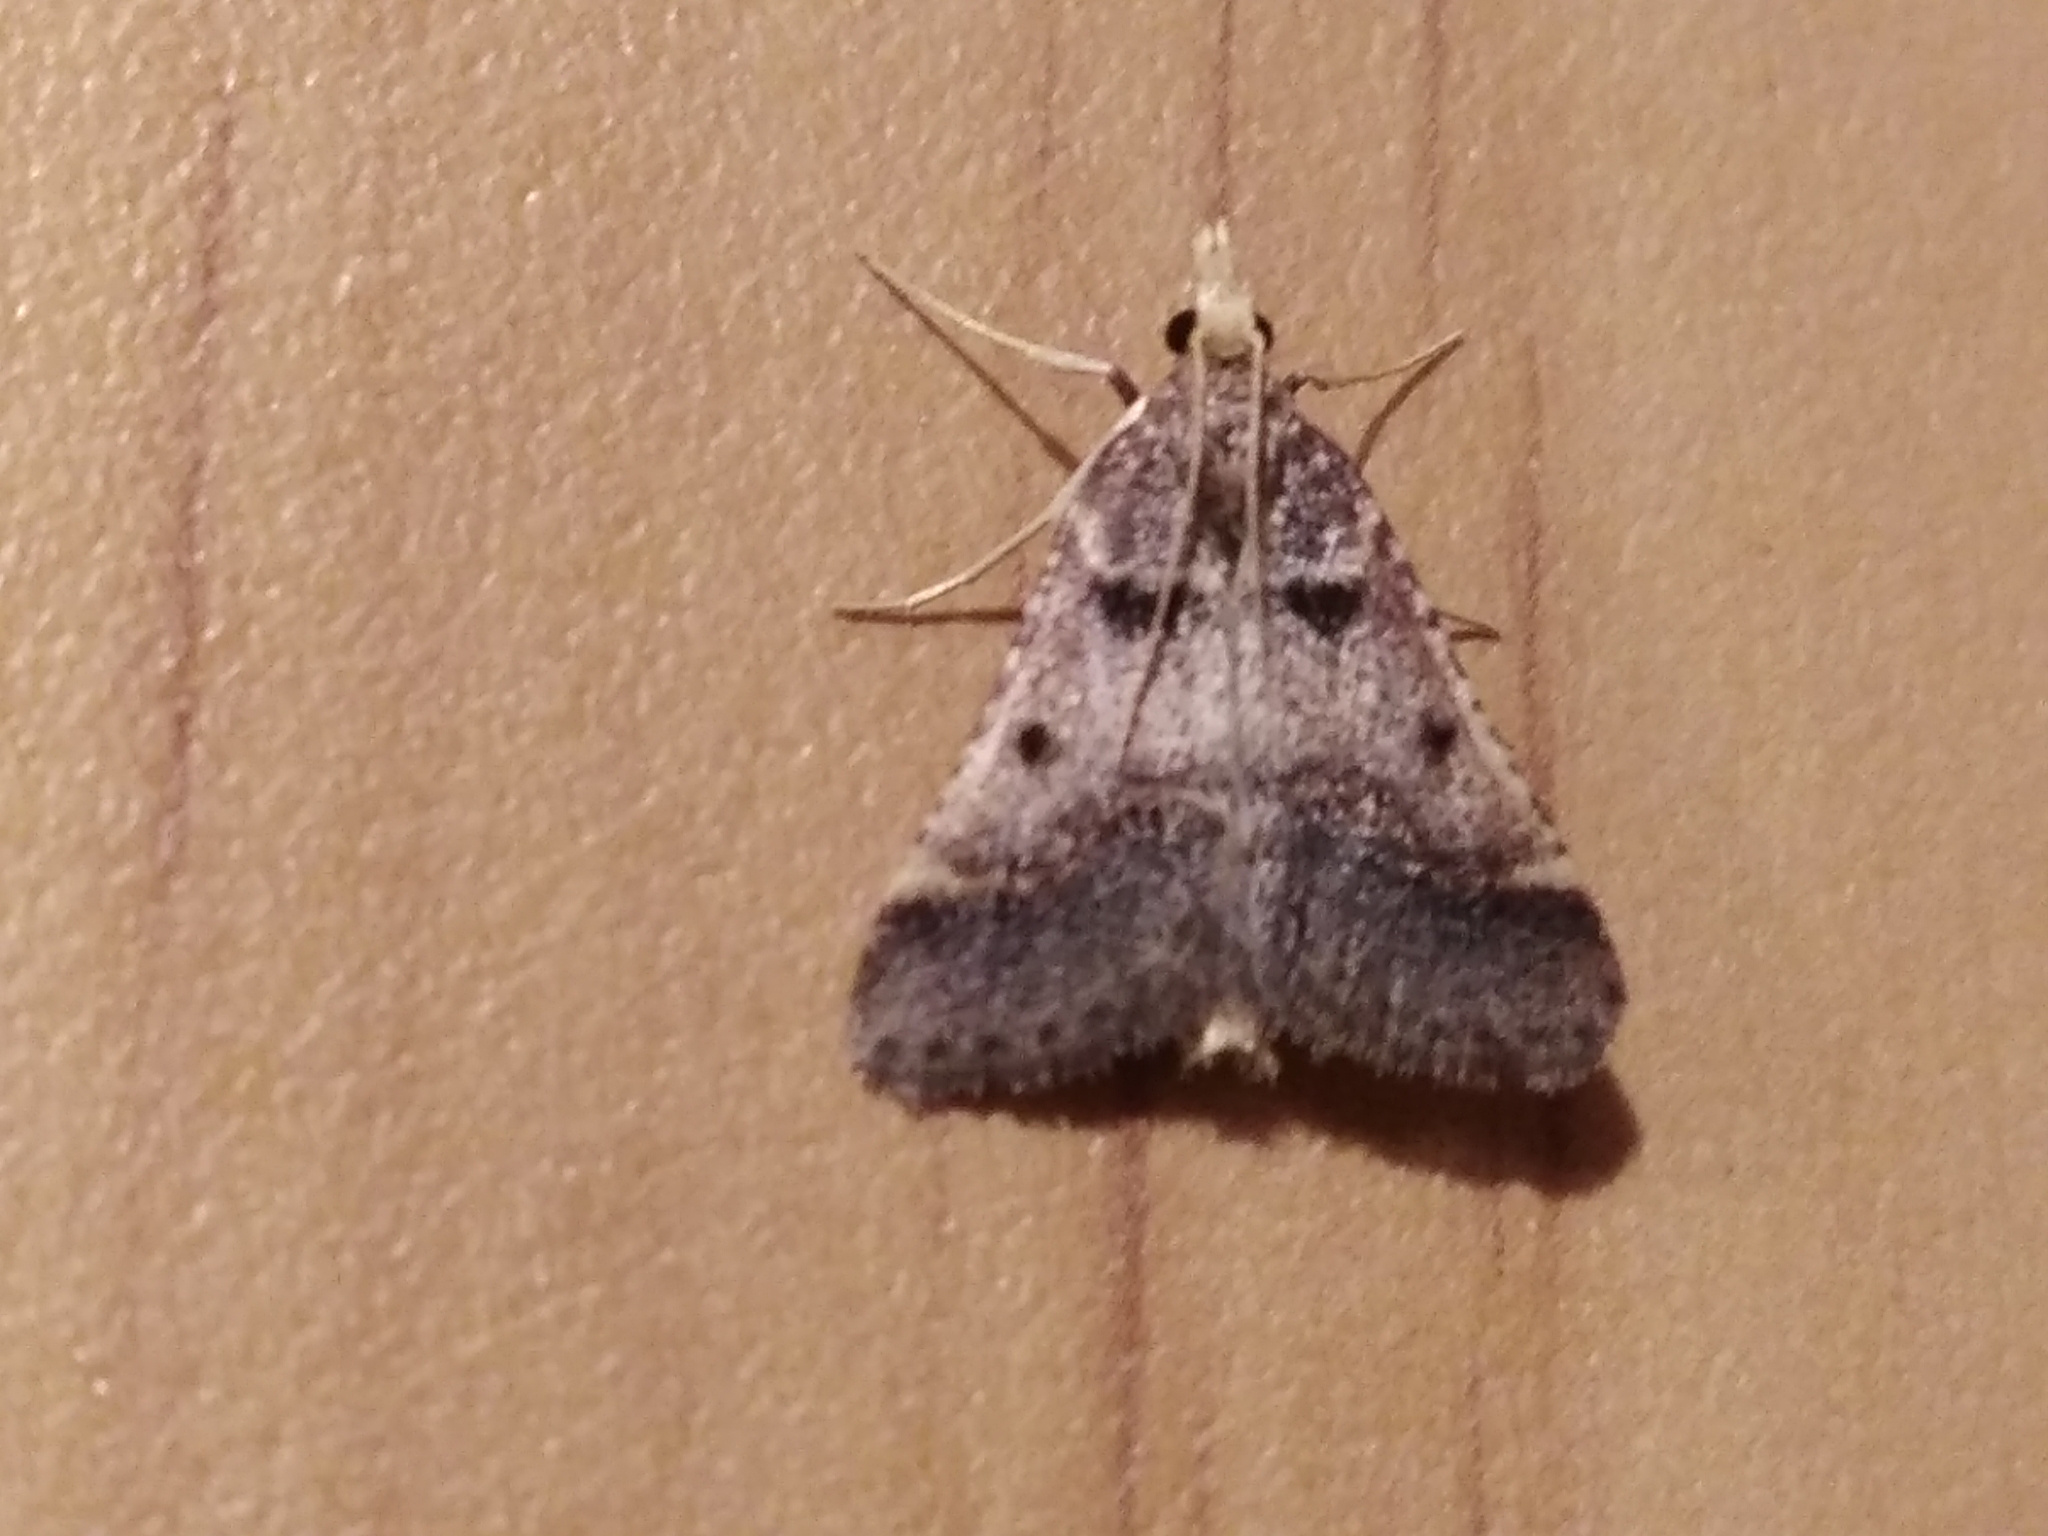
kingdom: Animalia
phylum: Arthropoda
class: Insecta
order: Lepidoptera
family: Pyralidae
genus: Stemmatophora
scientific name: Stemmatophora brunnealis
